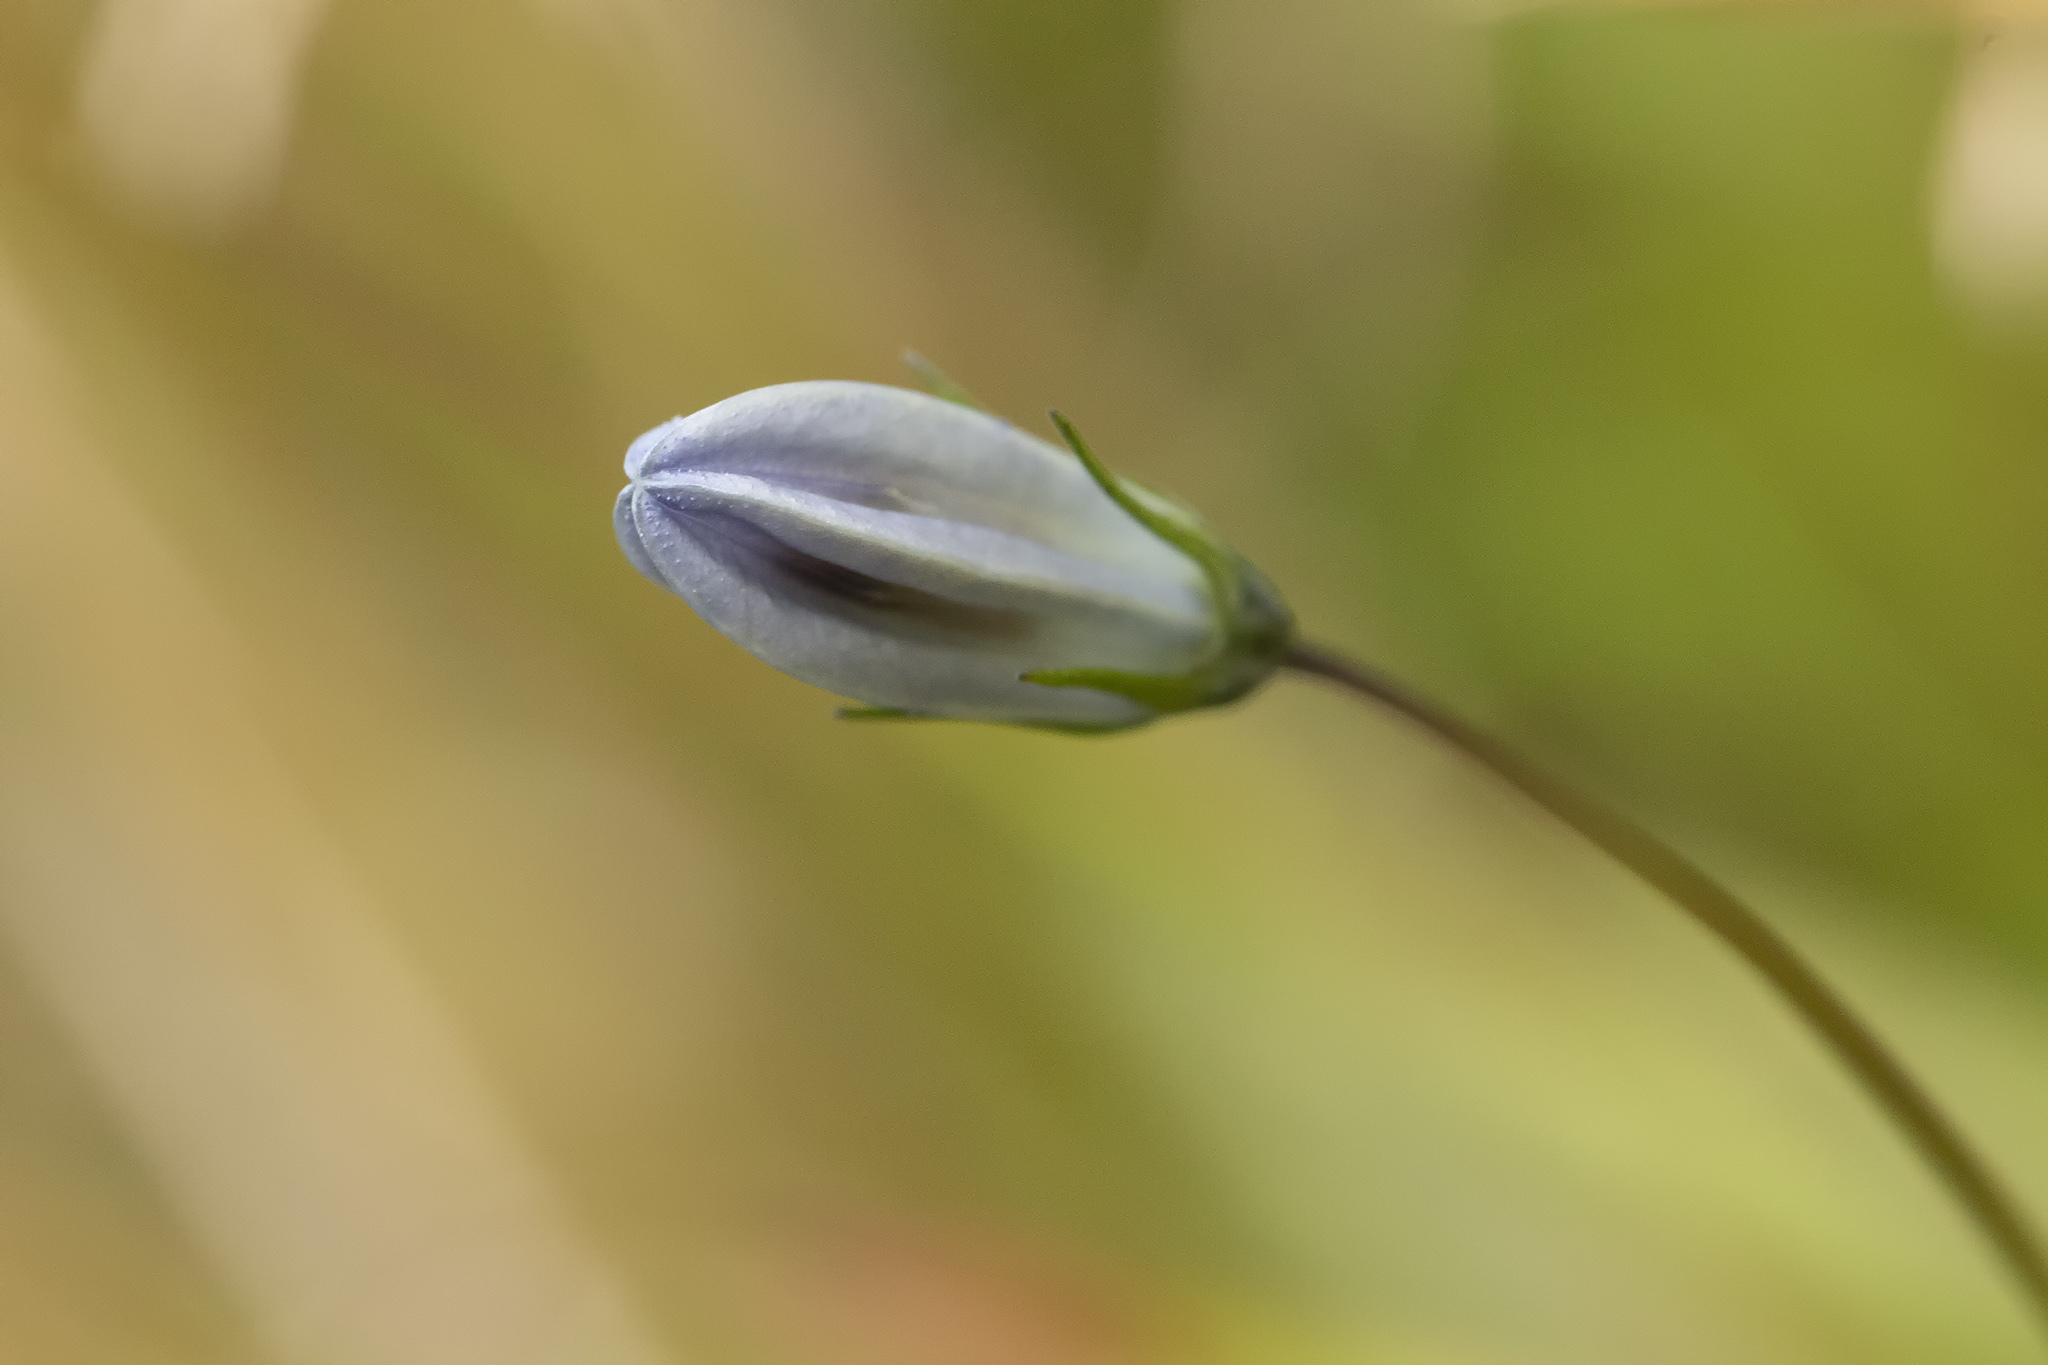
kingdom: Plantae
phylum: Tracheophyta
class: Magnoliopsida
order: Asterales
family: Campanulaceae
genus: Campanula
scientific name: Campanula rotundifolia
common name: Harebell
